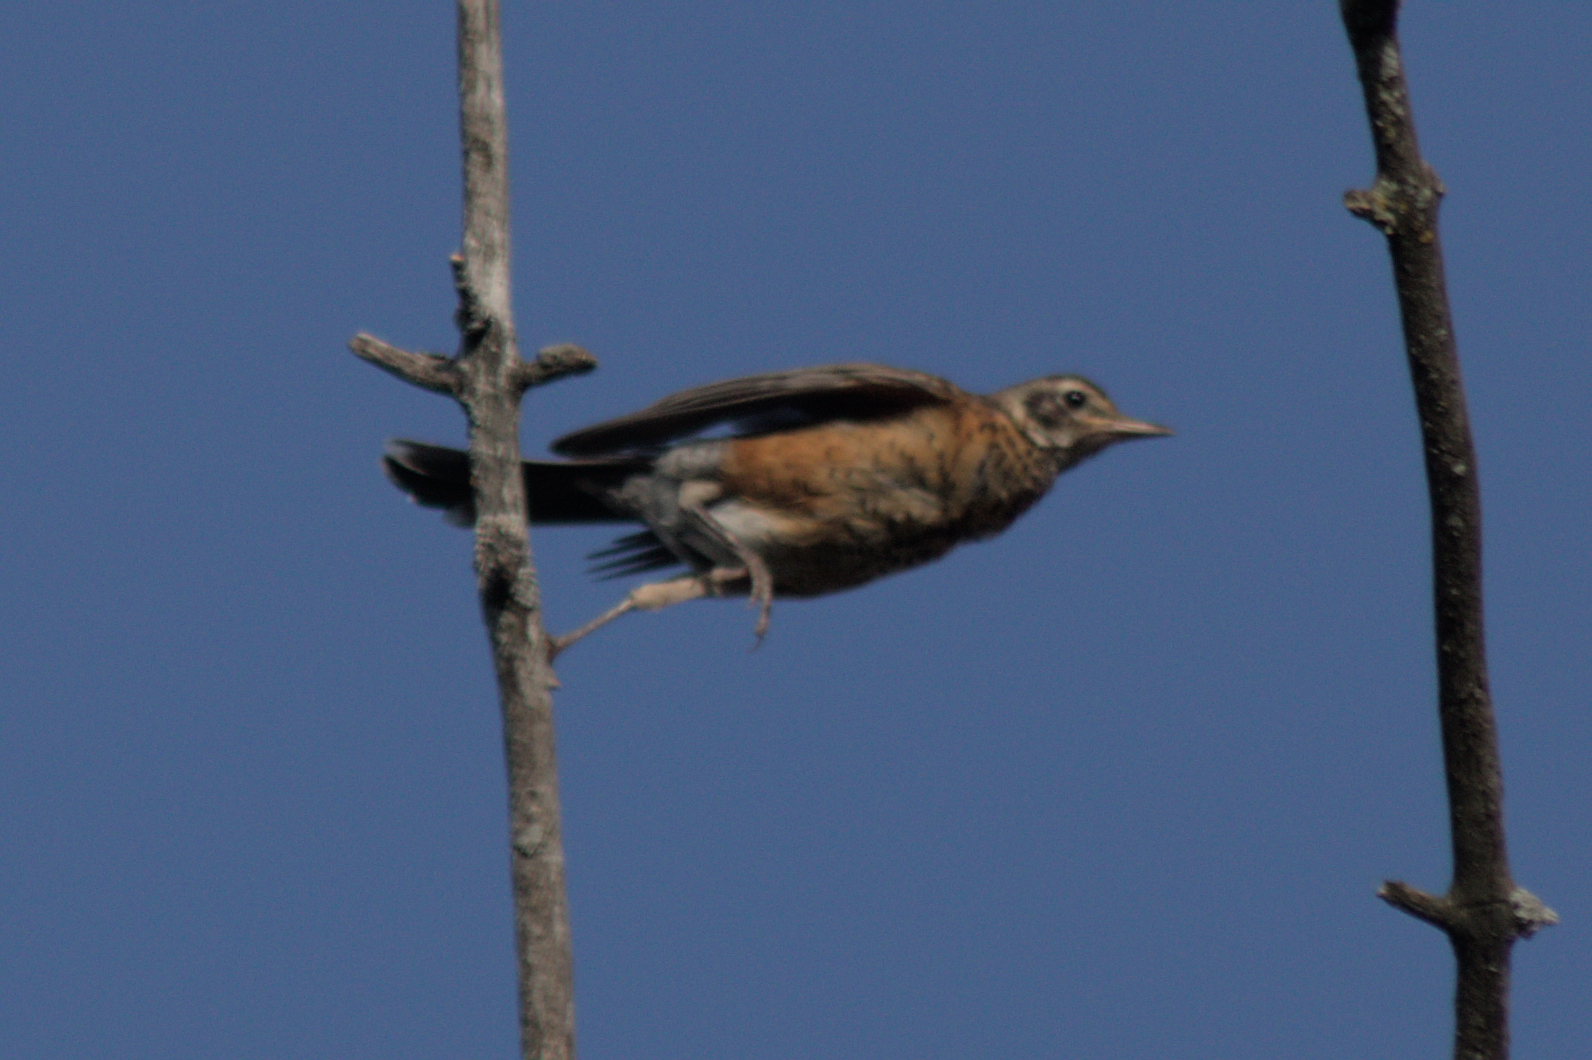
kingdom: Animalia
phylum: Chordata
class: Aves
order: Passeriformes
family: Turdidae
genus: Turdus
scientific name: Turdus migratorius
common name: American robin
